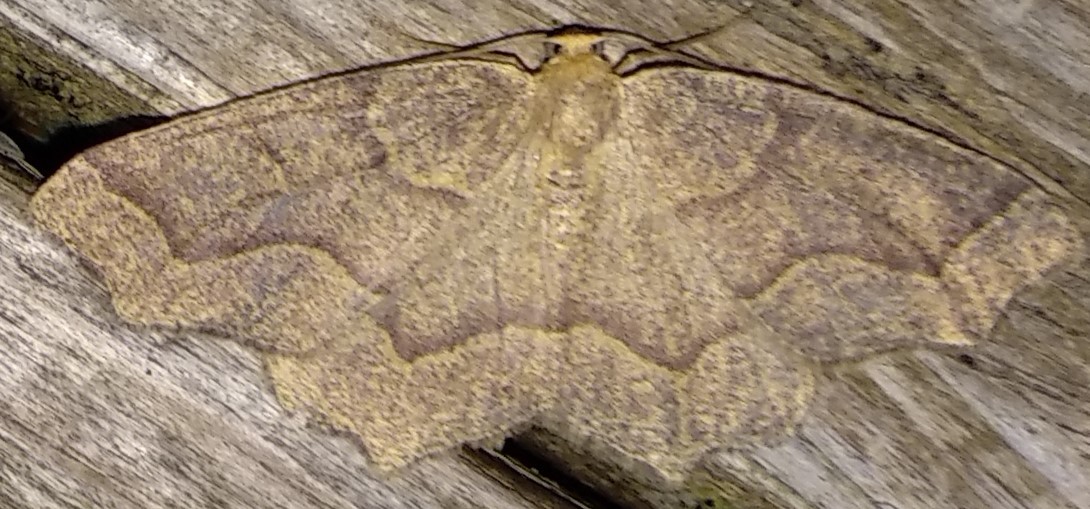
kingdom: Animalia
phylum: Arthropoda
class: Insecta
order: Lepidoptera
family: Geometridae
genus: Lambdina
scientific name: Lambdina fiscellaria
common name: Hemlock looper
